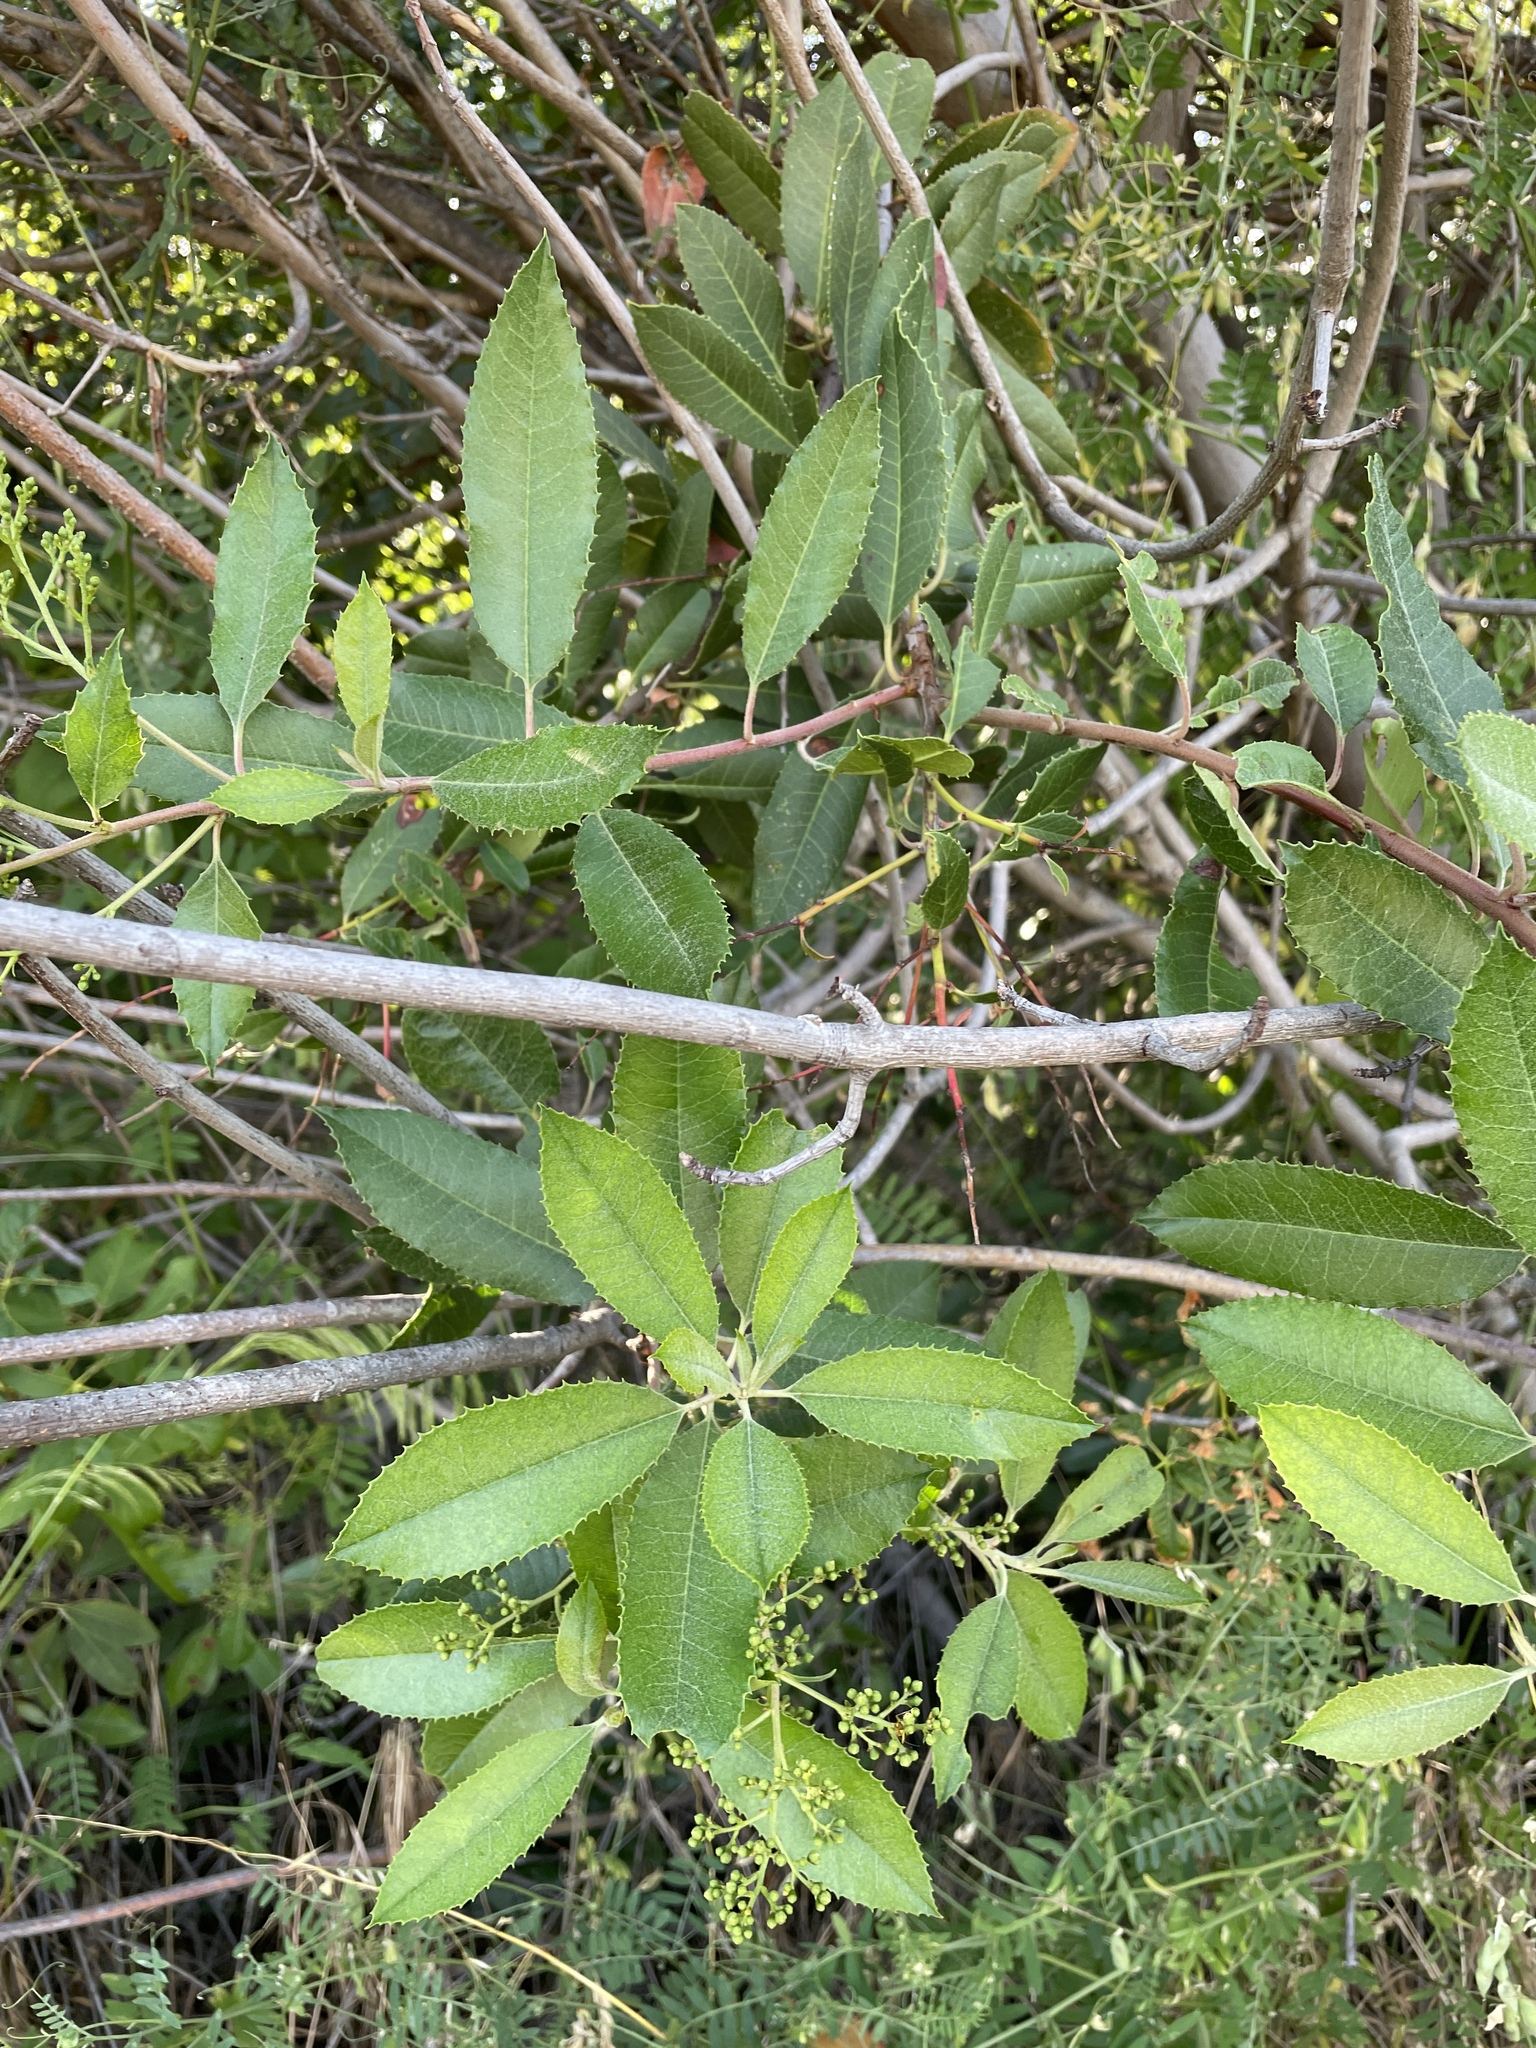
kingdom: Plantae
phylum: Tracheophyta
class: Magnoliopsida
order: Rosales
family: Rosaceae
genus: Heteromeles
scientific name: Heteromeles arbutifolia
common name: California-holly
